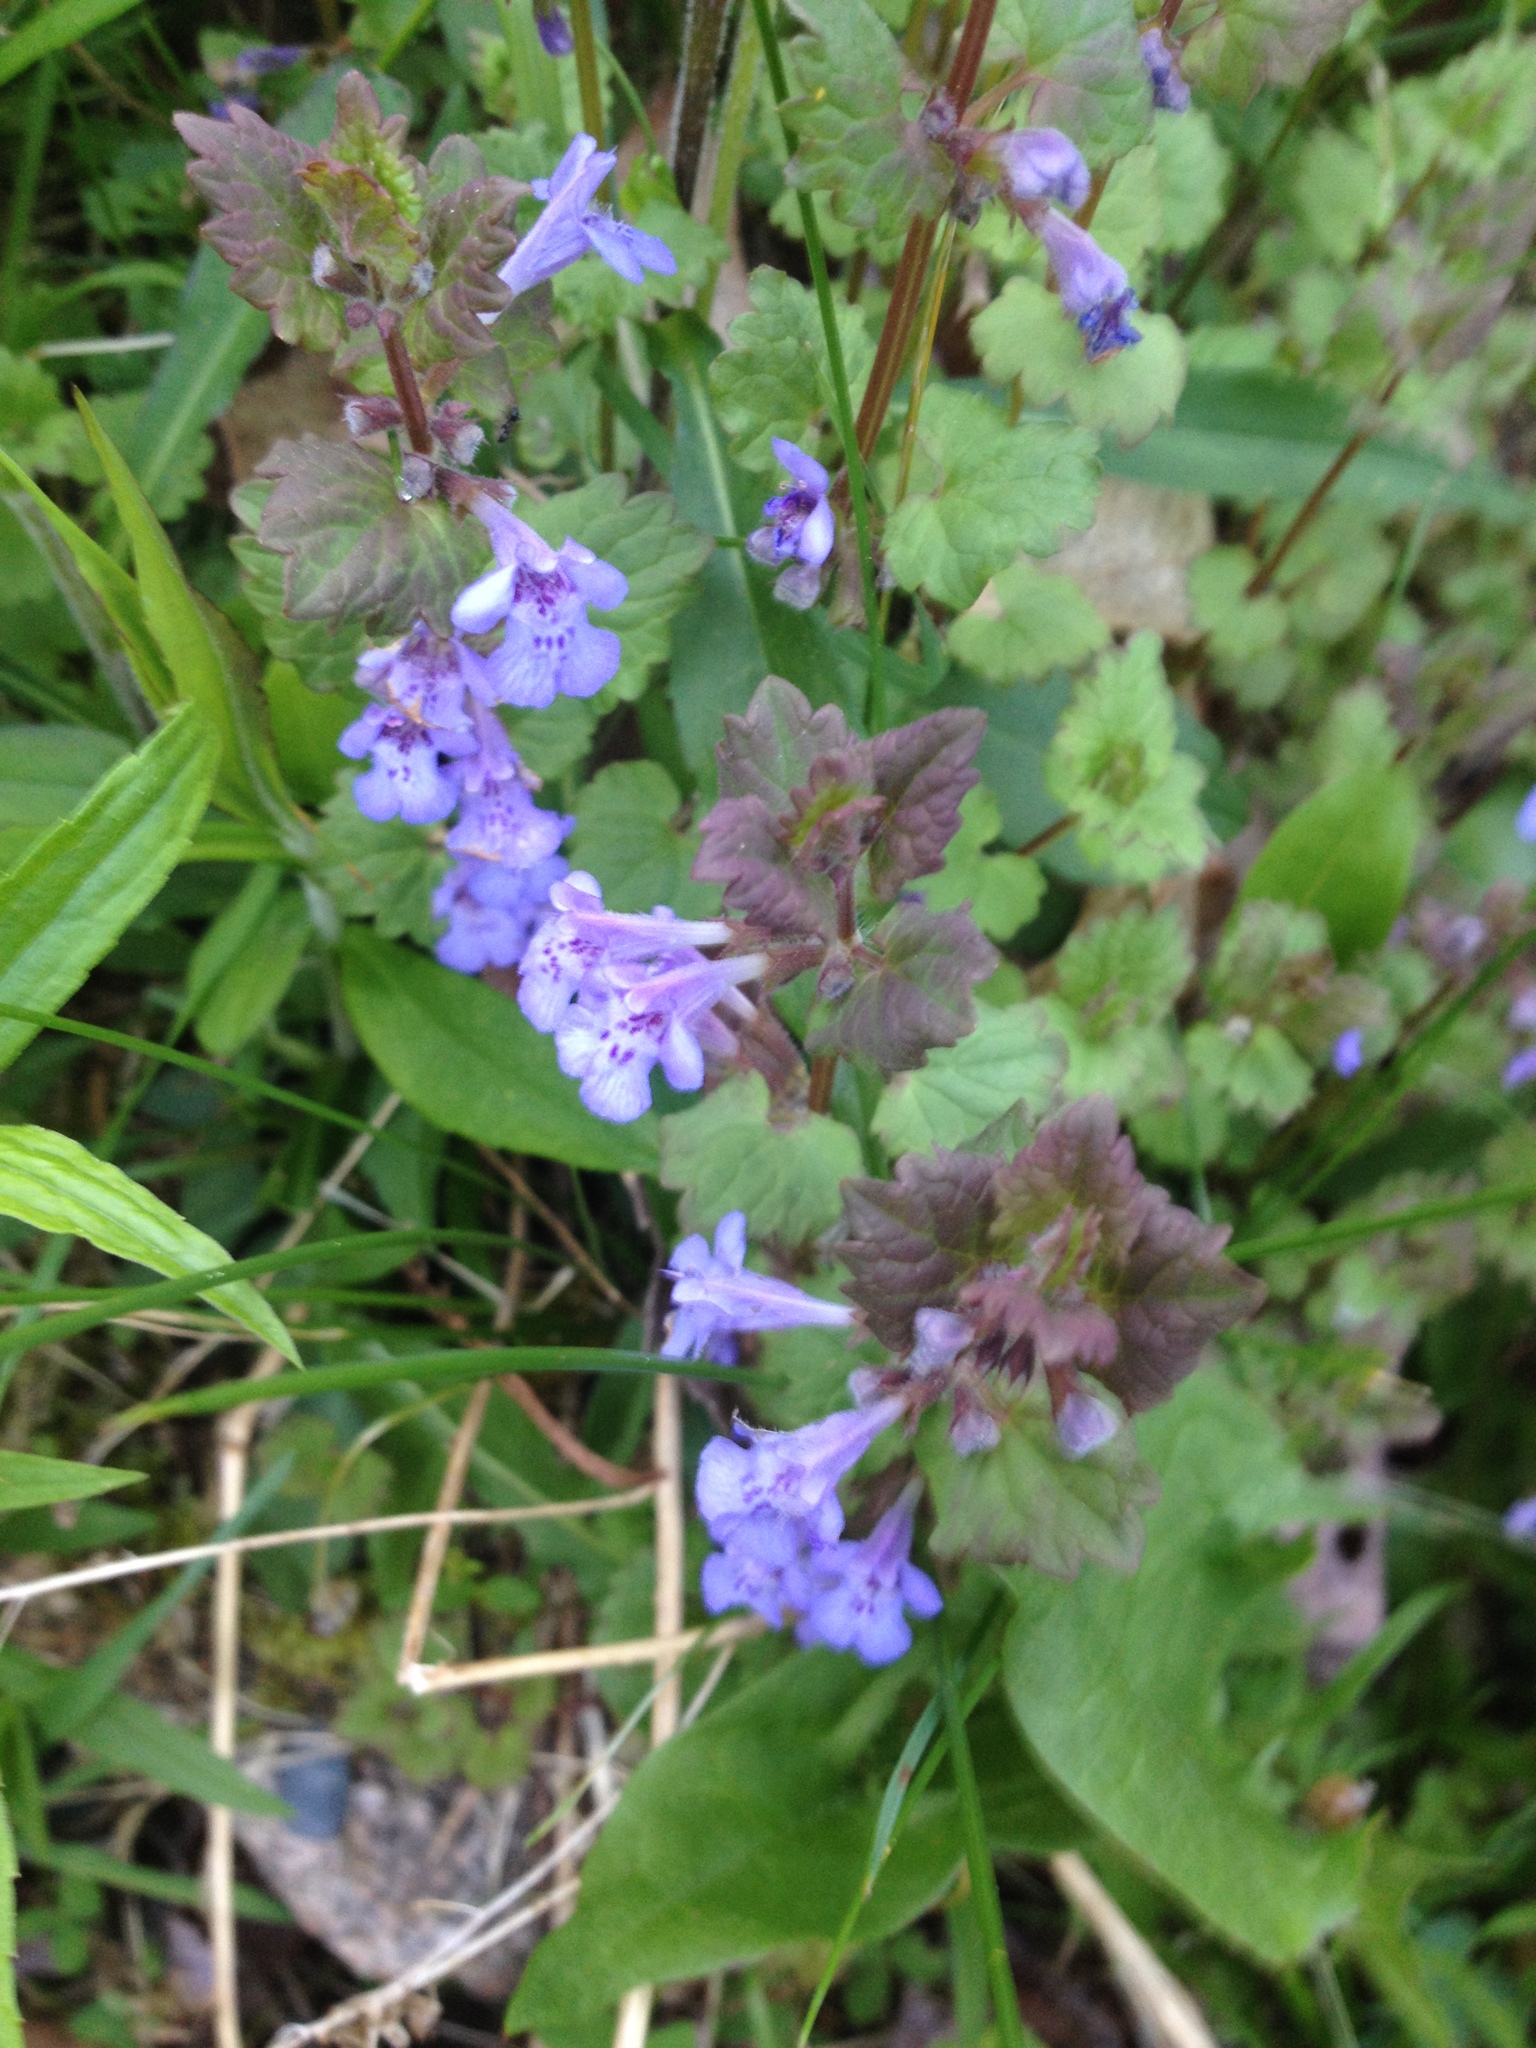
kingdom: Plantae
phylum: Tracheophyta
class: Magnoliopsida
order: Lamiales
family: Lamiaceae
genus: Glechoma
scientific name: Glechoma hederacea
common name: Ground ivy
